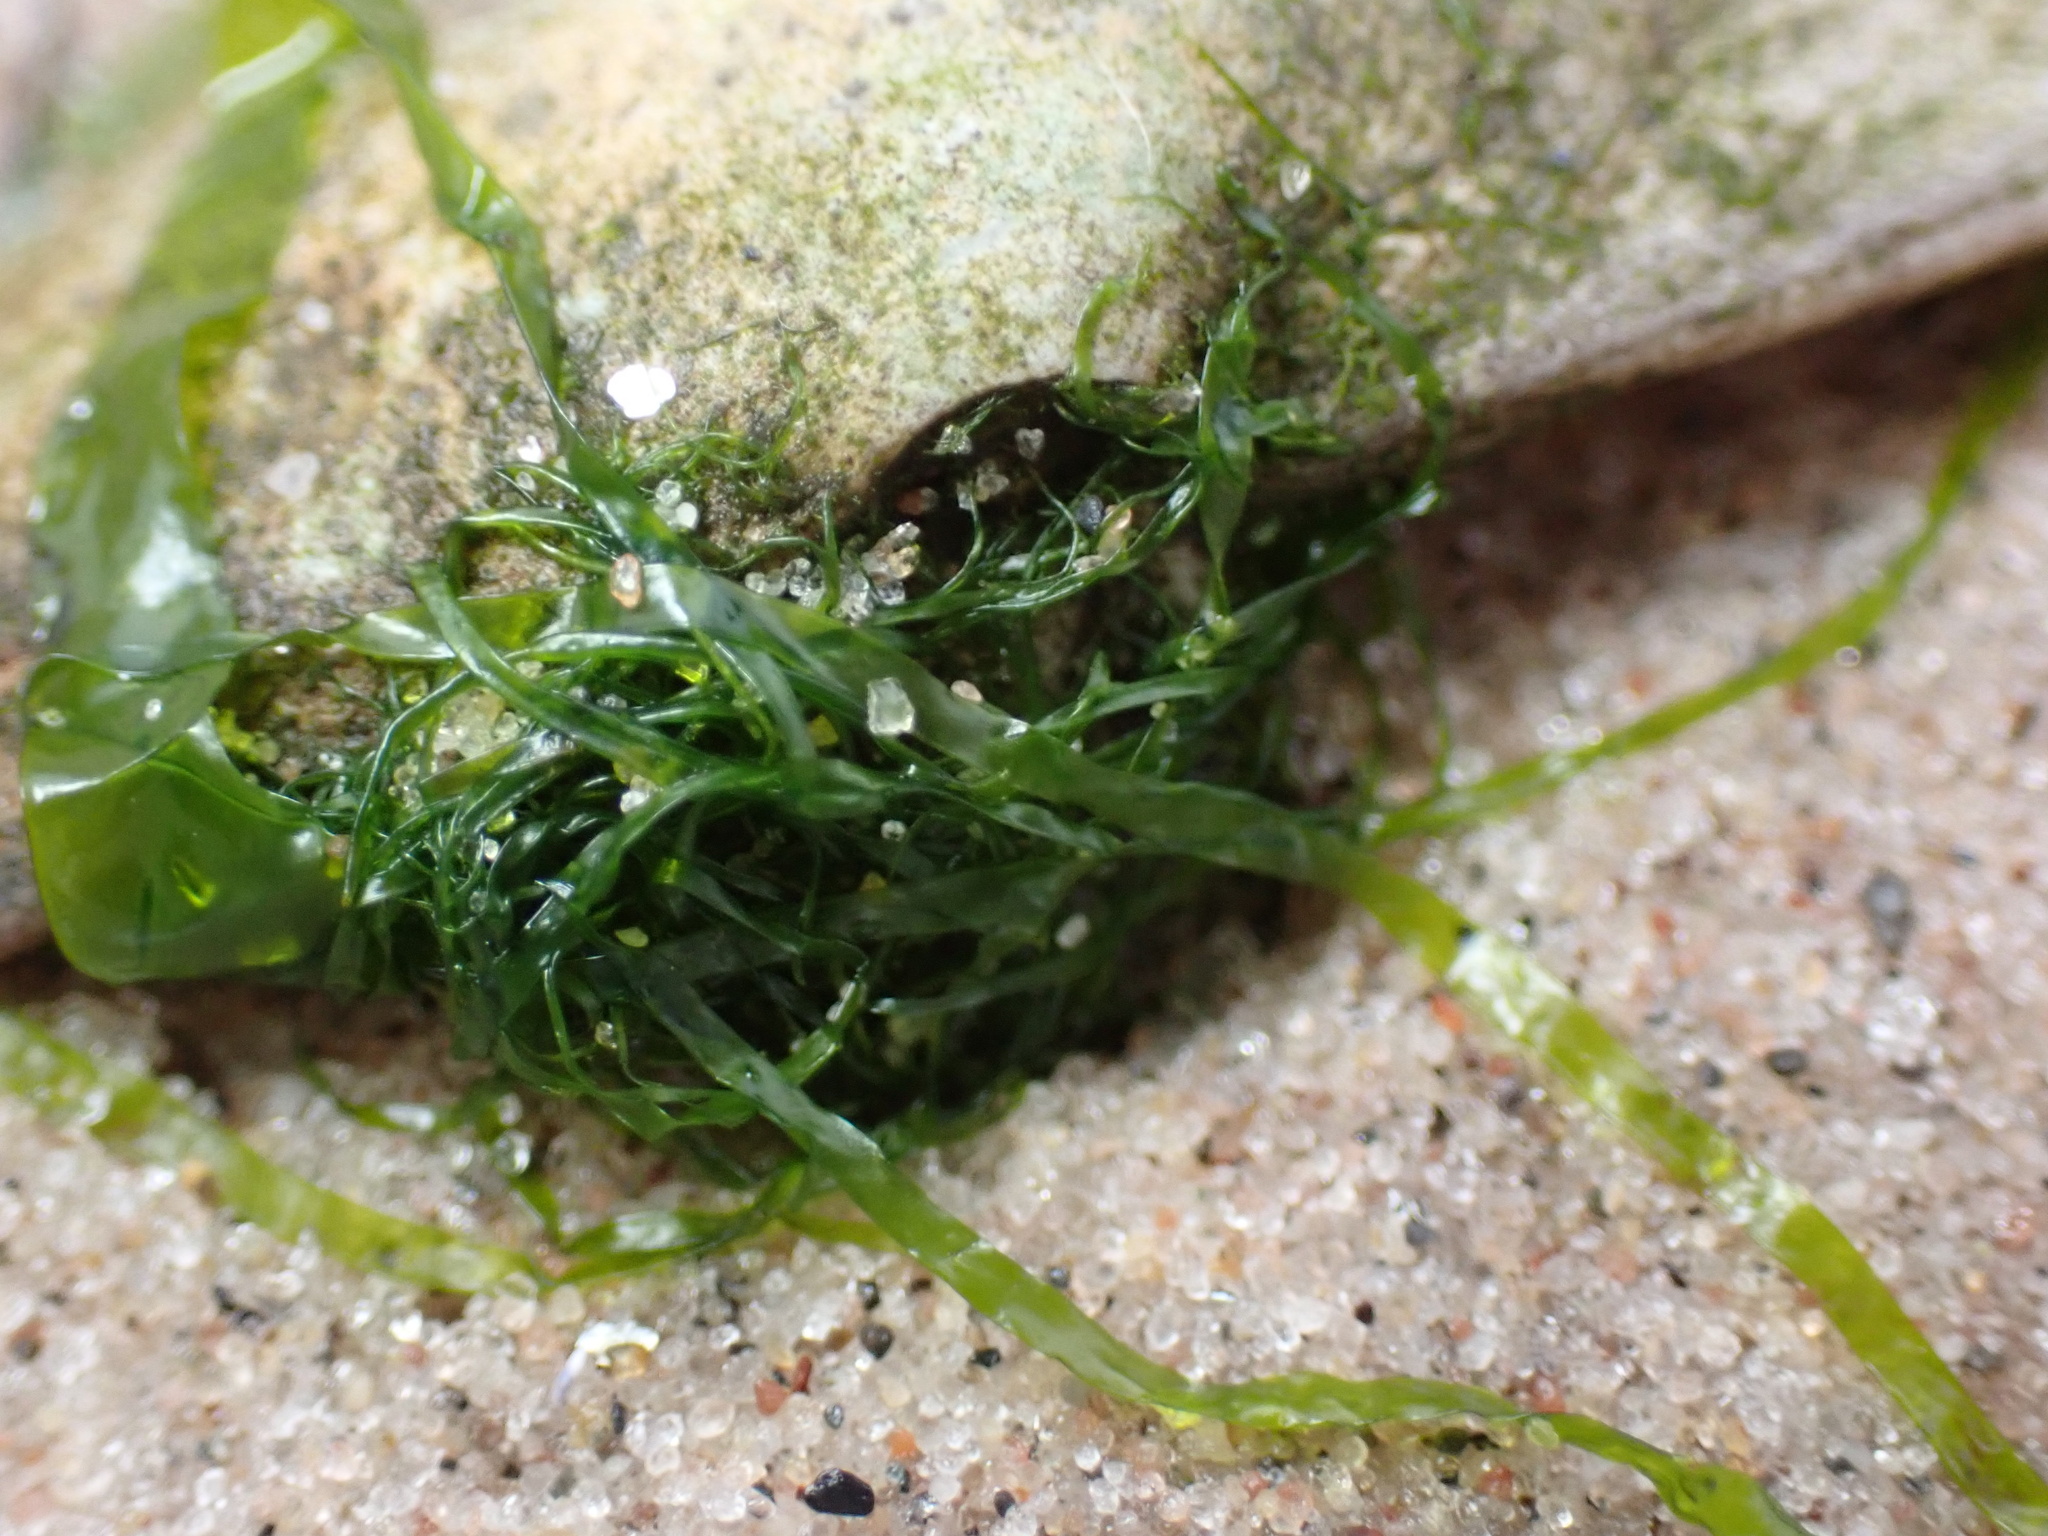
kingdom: Plantae
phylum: Chlorophyta
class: Ulvophyceae
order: Ulvales
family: Ulvaceae
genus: Ulva
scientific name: Ulva intestinalis
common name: Gut weed
